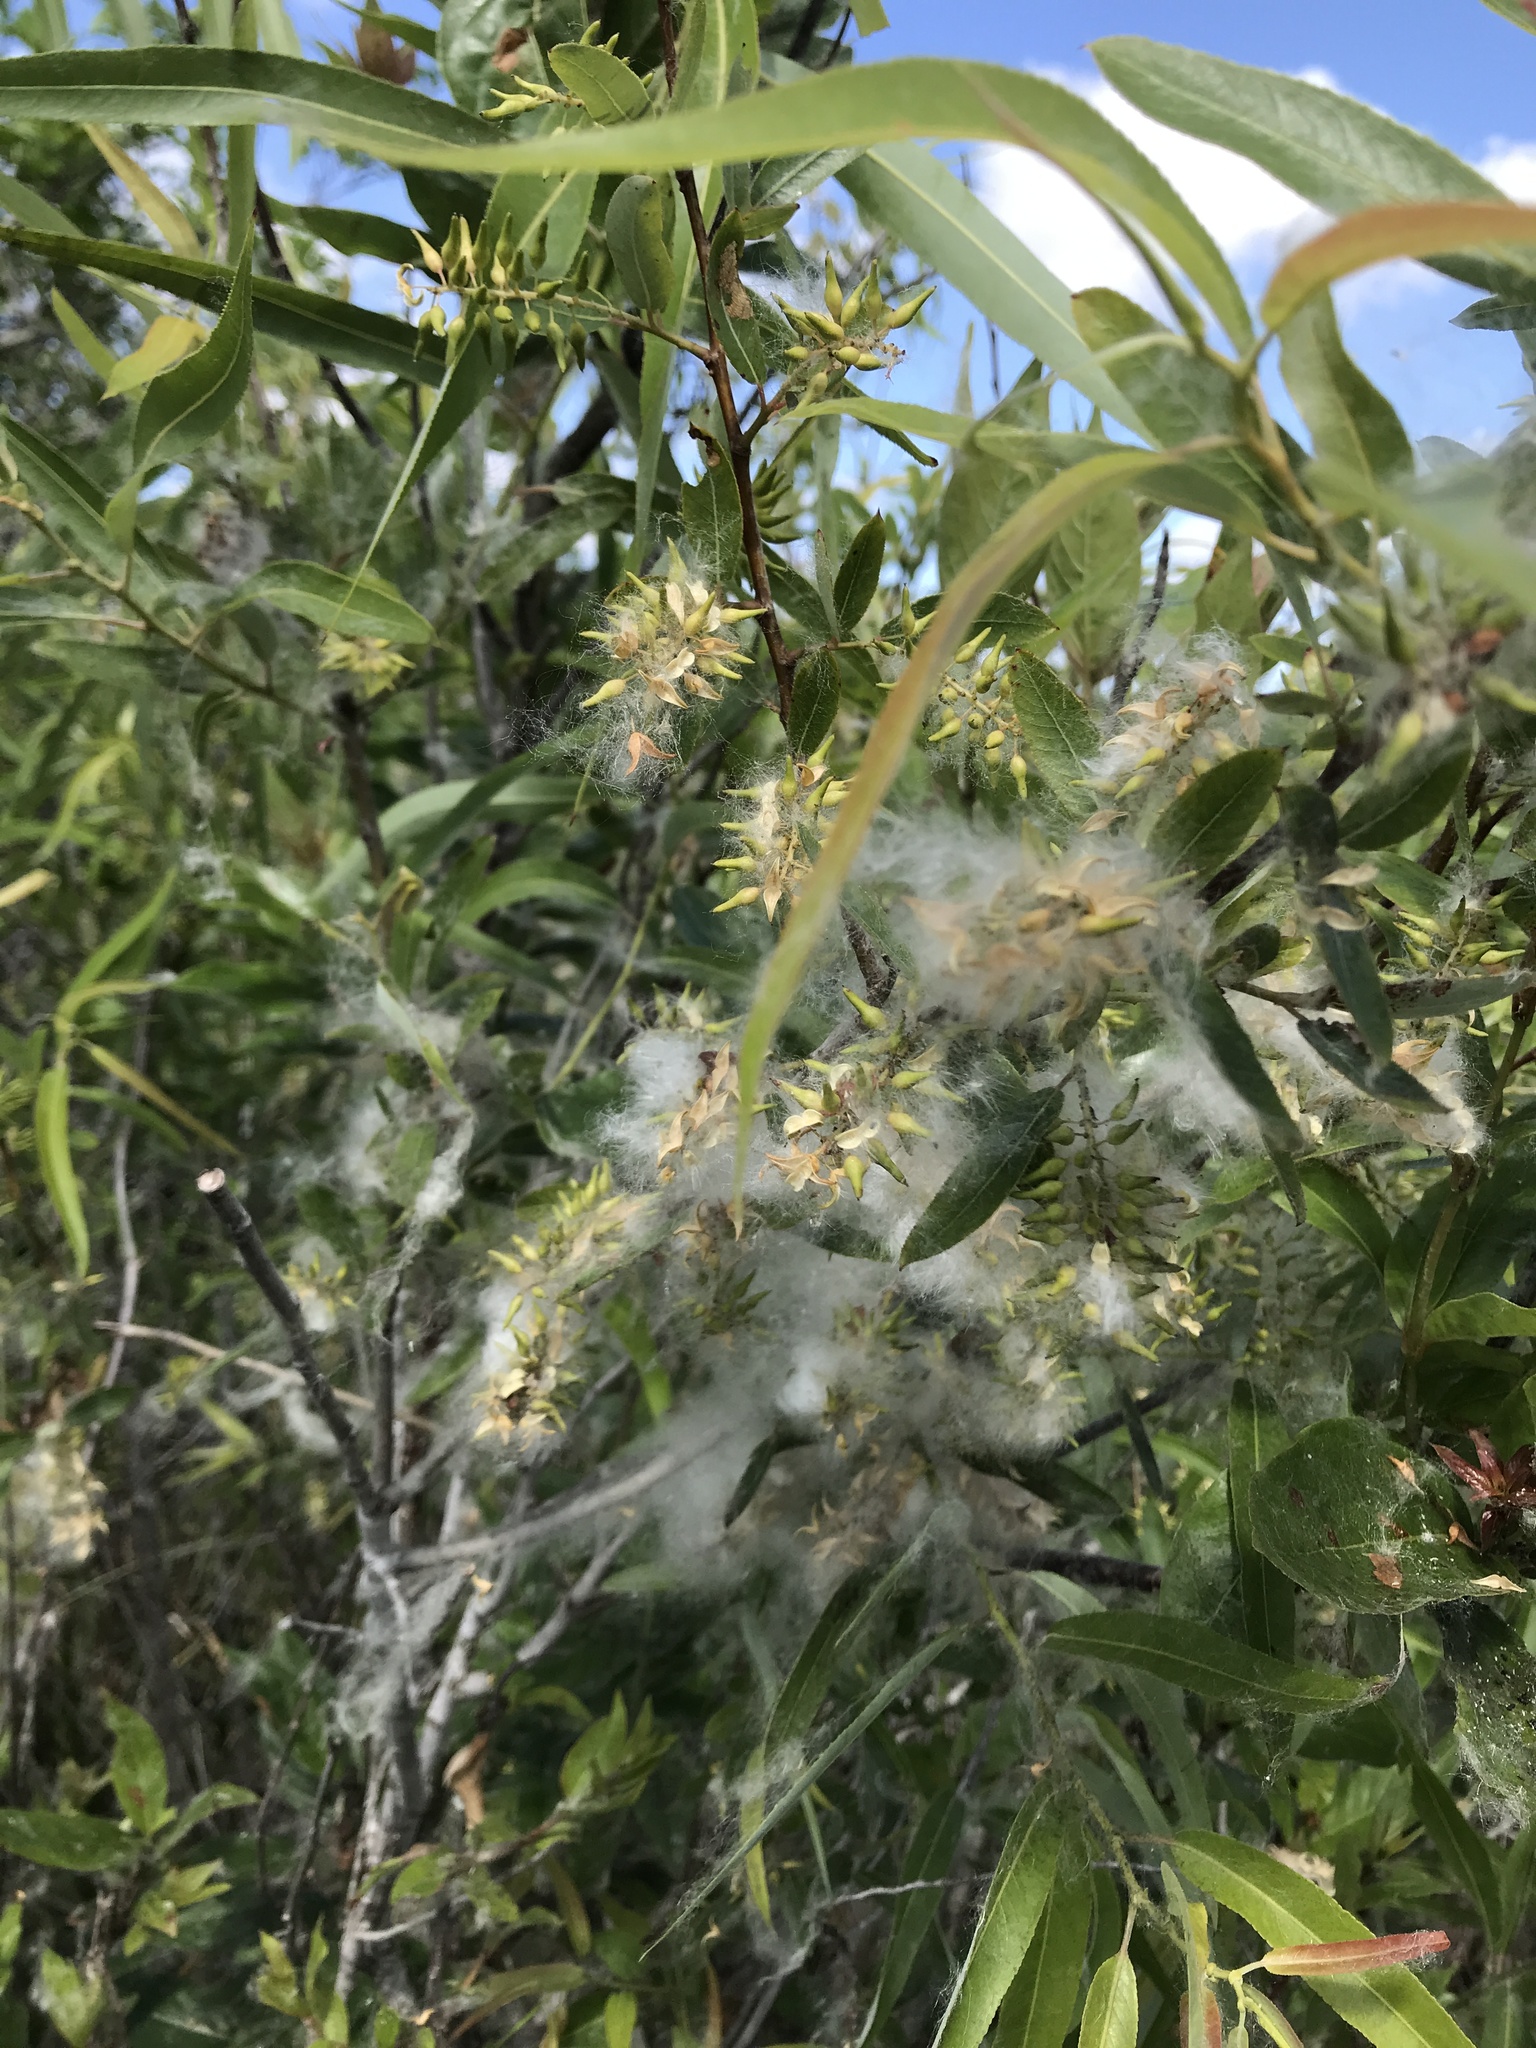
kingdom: Plantae
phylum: Tracheophyta
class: Magnoliopsida
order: Malpighiales
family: Salicaceae
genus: Salix
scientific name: Salix caroliniana
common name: Carolina willow
